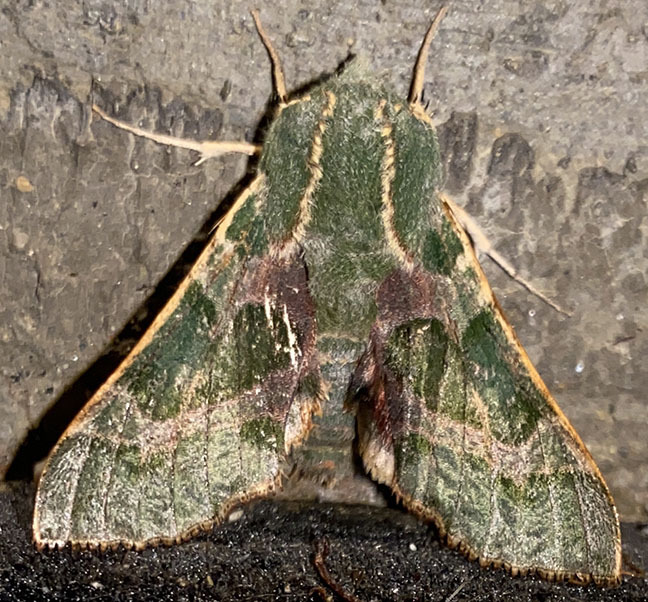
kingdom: Animalia
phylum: Arthropoda
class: Insecta
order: Lepidoptera
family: Sphingidae
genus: Proserpinus
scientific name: Proserpinus lucidus
